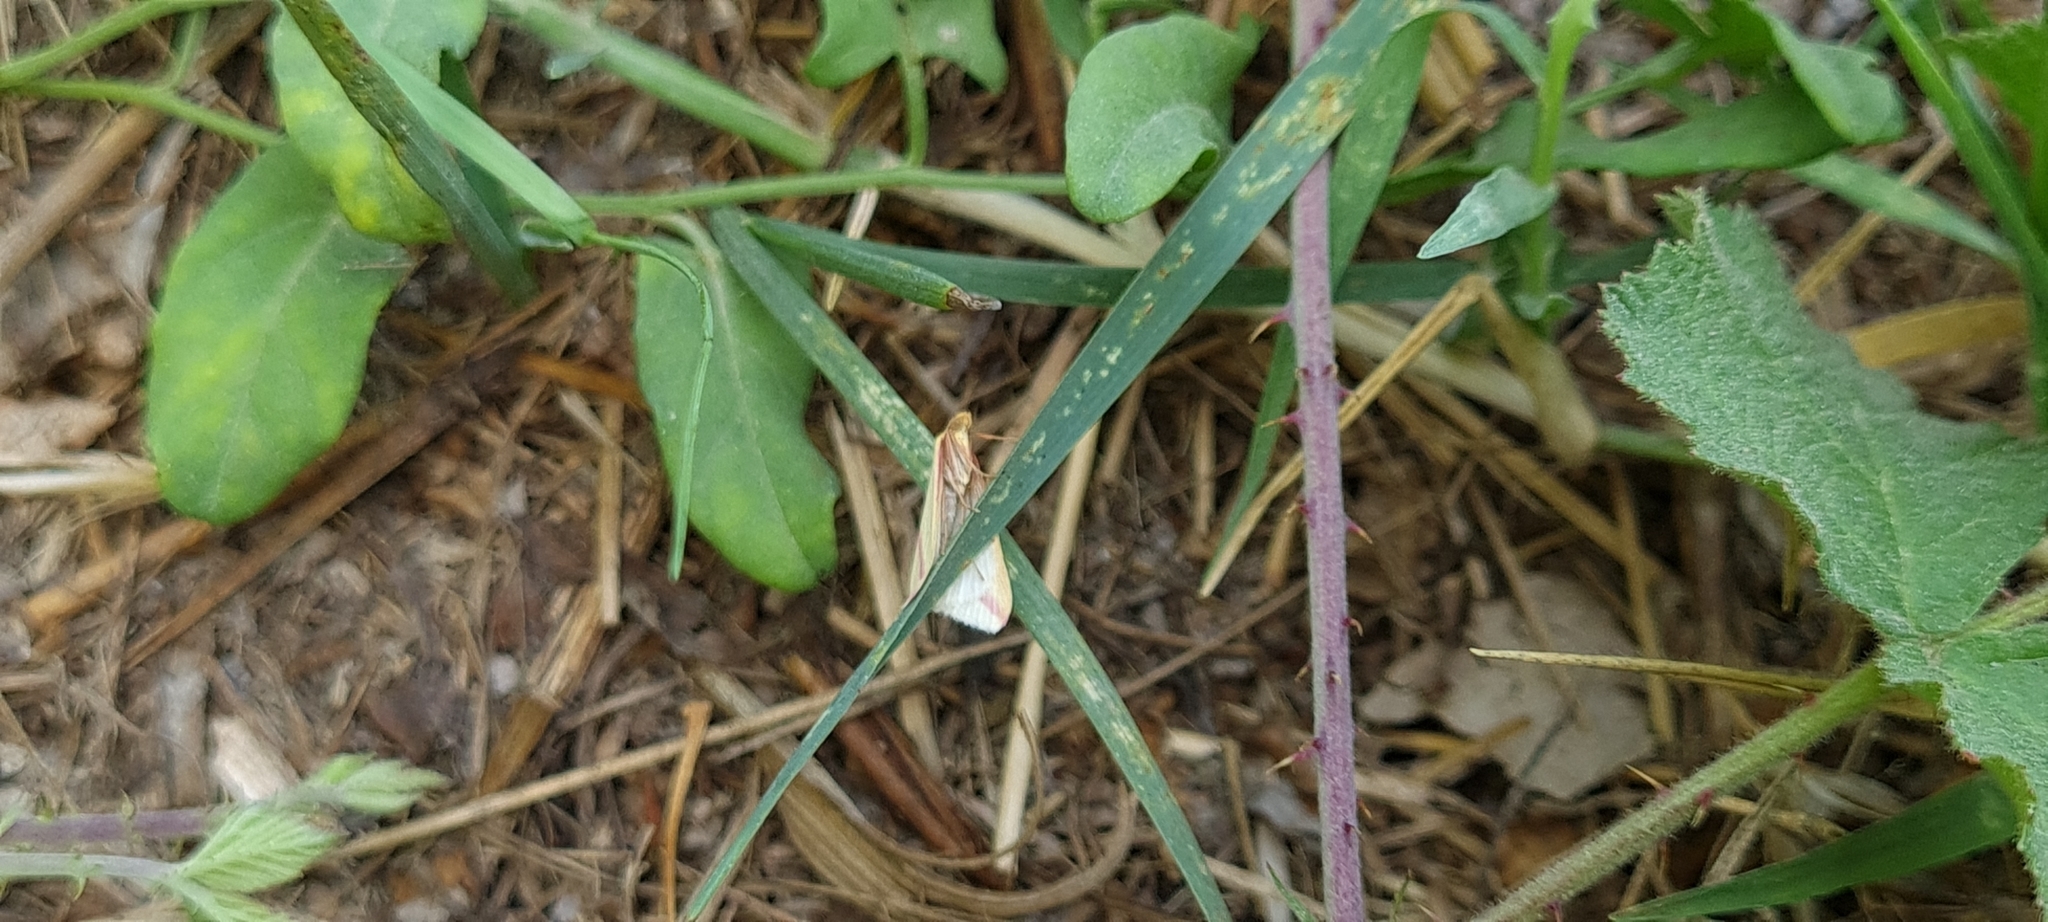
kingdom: Animalia
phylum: Arthropoda
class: Insecta
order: Lepidoptera
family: Geometridae
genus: Rhodometra
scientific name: Rhodometra sacraria
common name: Vestal
